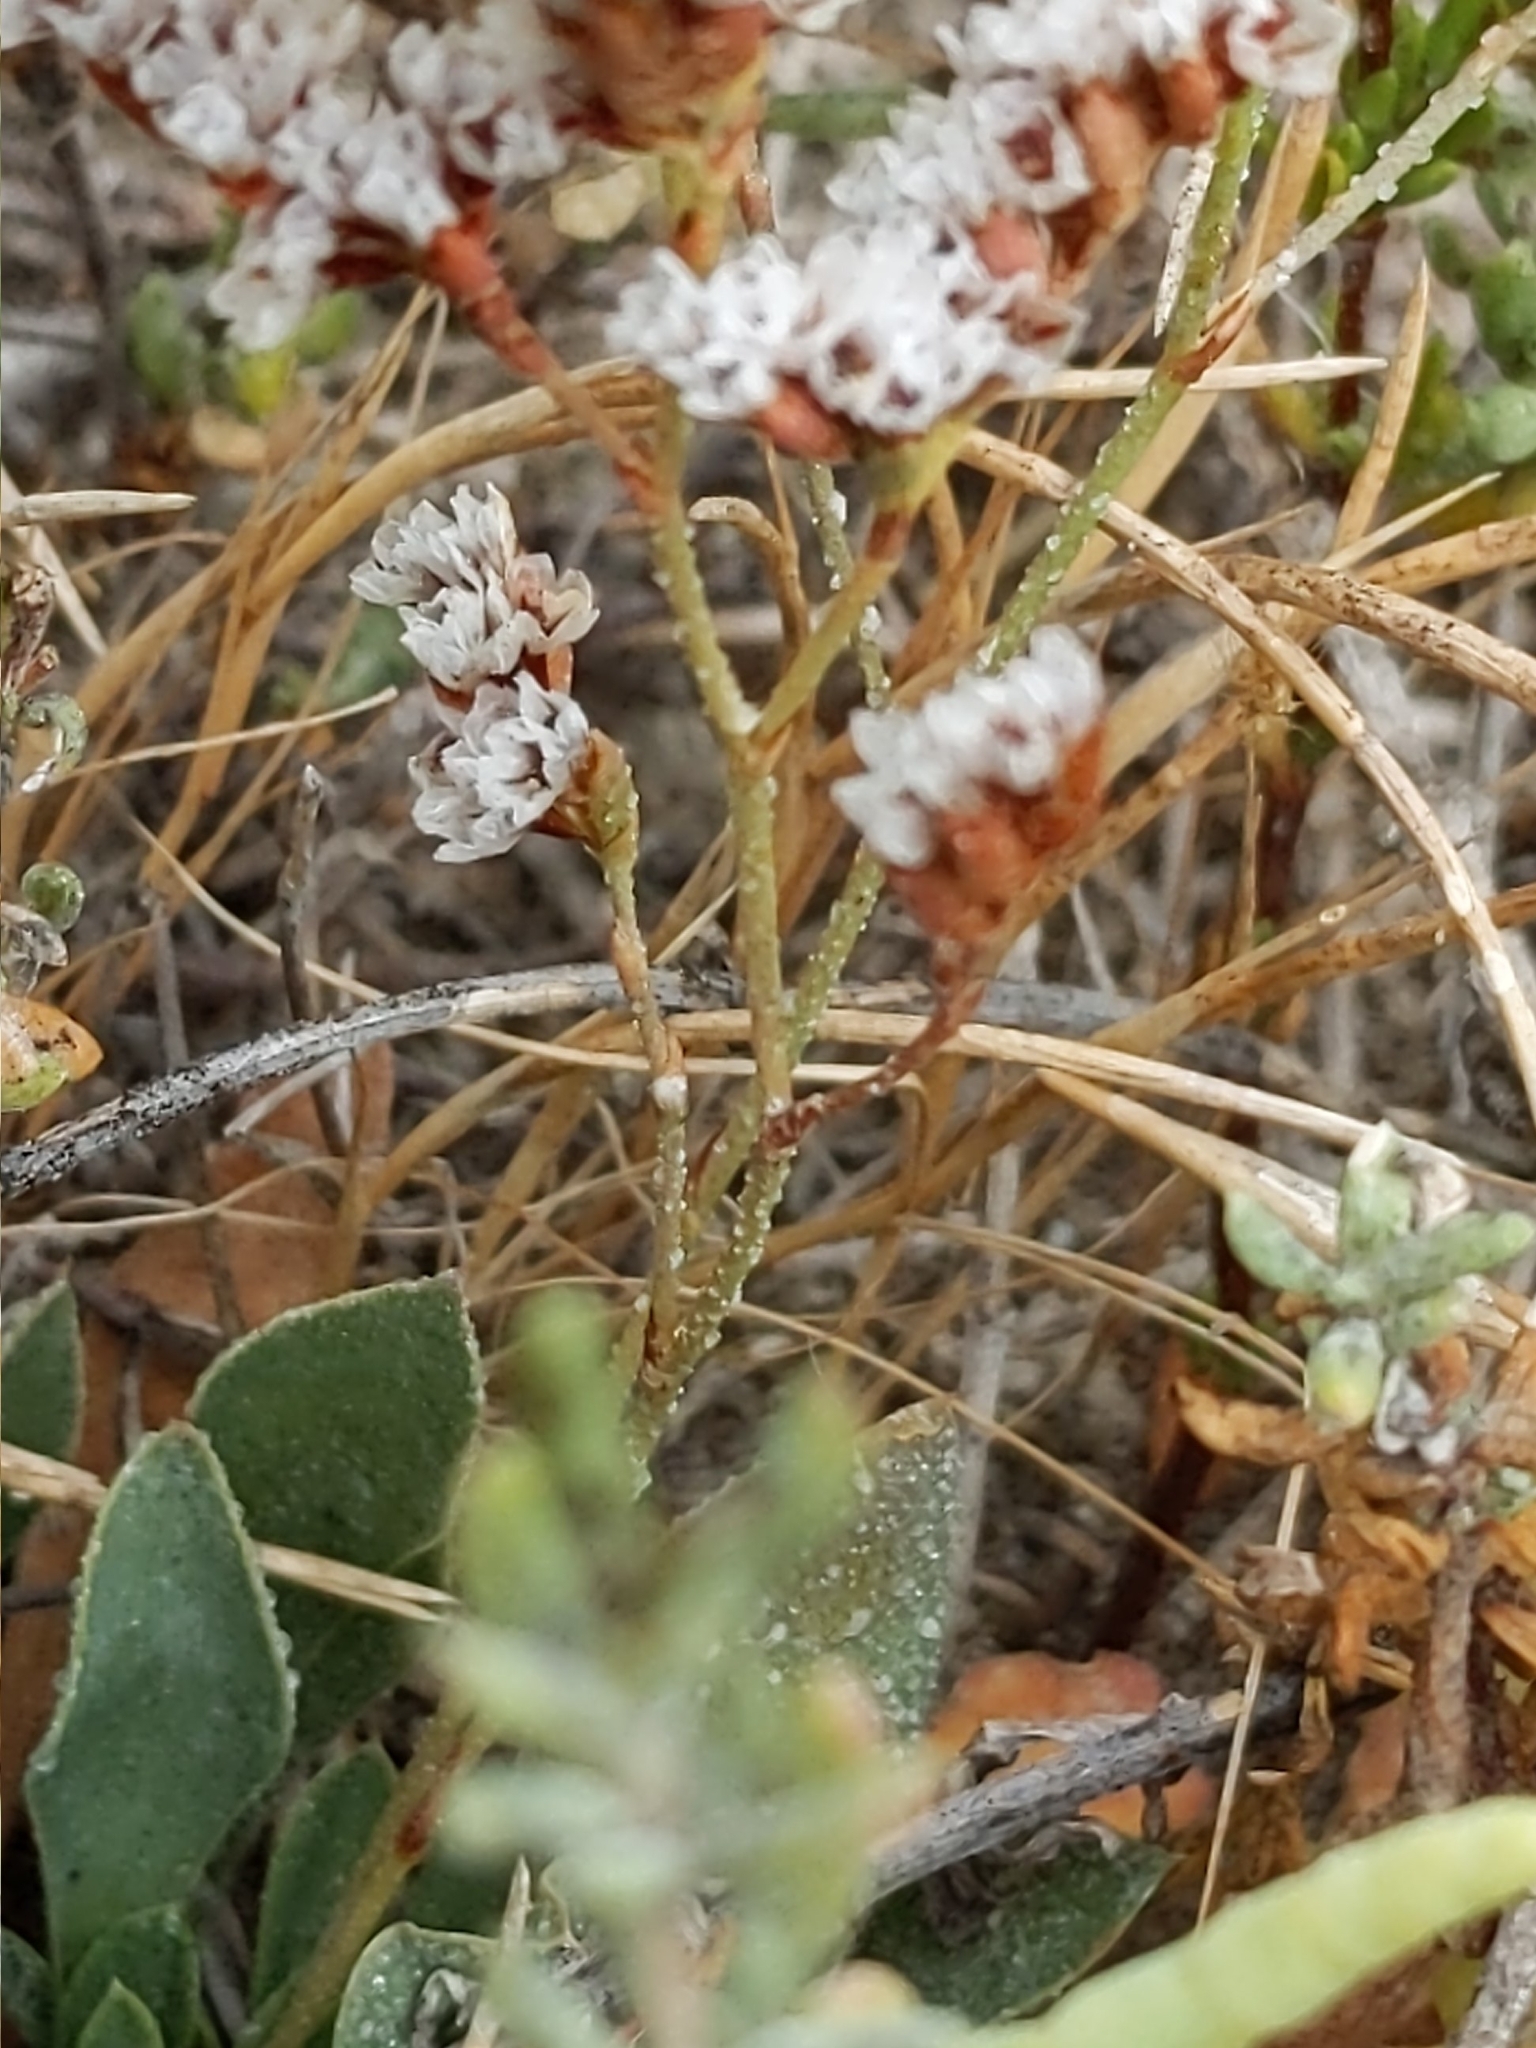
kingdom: Plantae
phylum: Tracheophyta
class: Magnoliopsida
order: Caryophyllales
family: Plumbaginaceae
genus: Limonium
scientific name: Limonium californicum
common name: Marsh-rosemary
